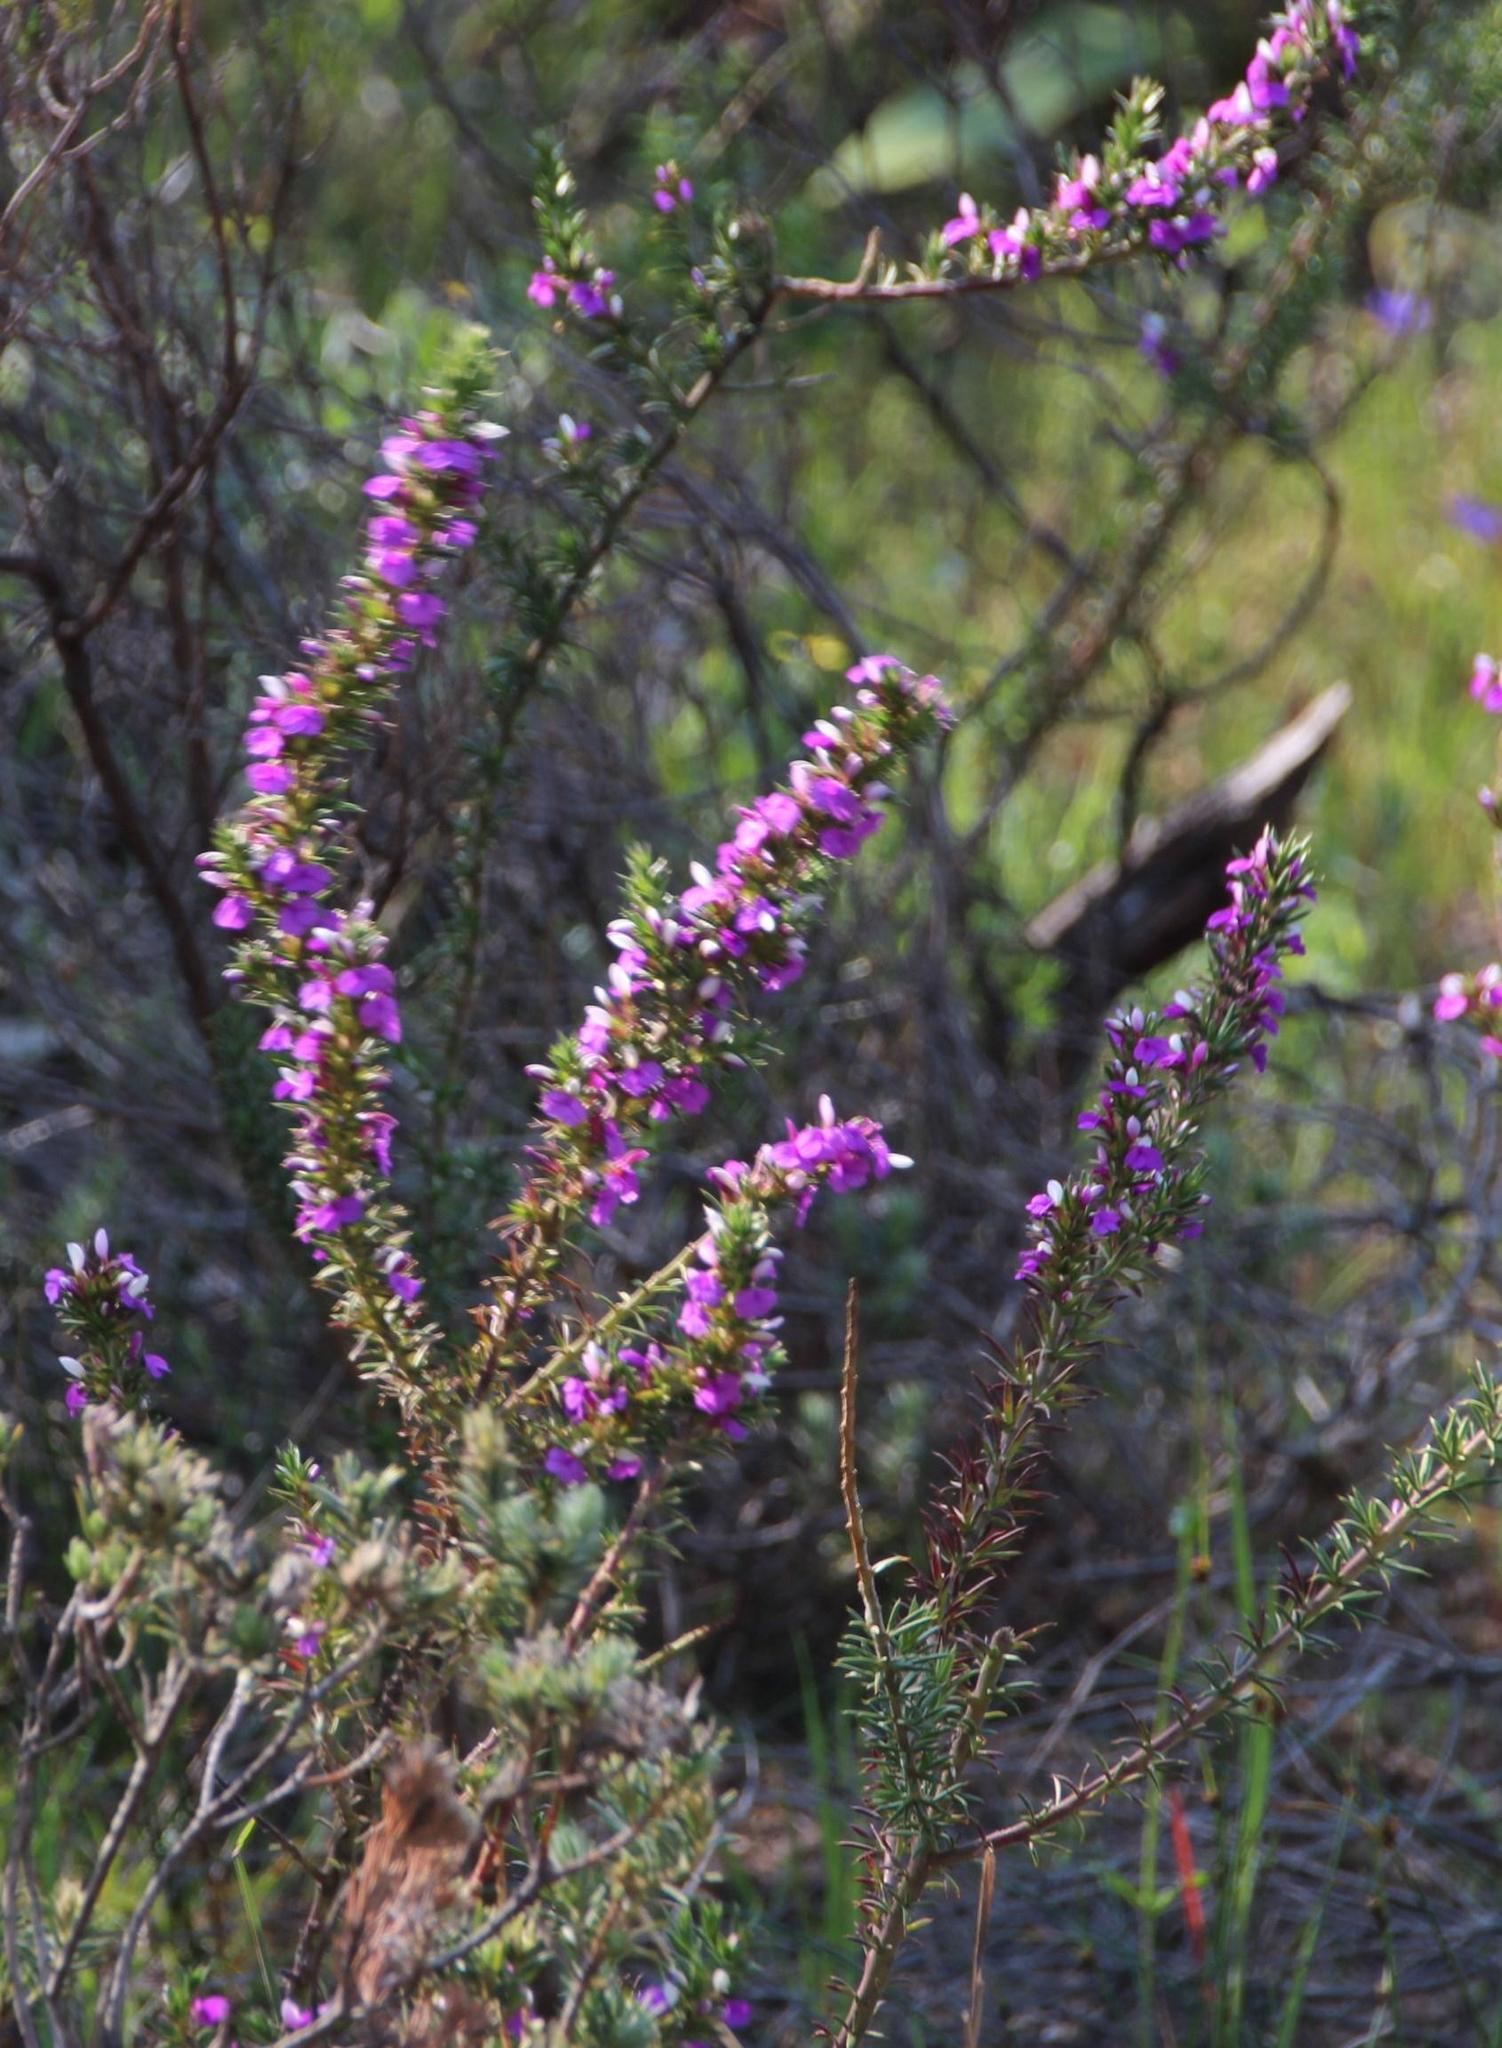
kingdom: Plantae
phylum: Tracheophyta
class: Magnoliopsida
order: Fabales
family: Polygalaceae
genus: Muraltia
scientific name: Muraltia heisteria
